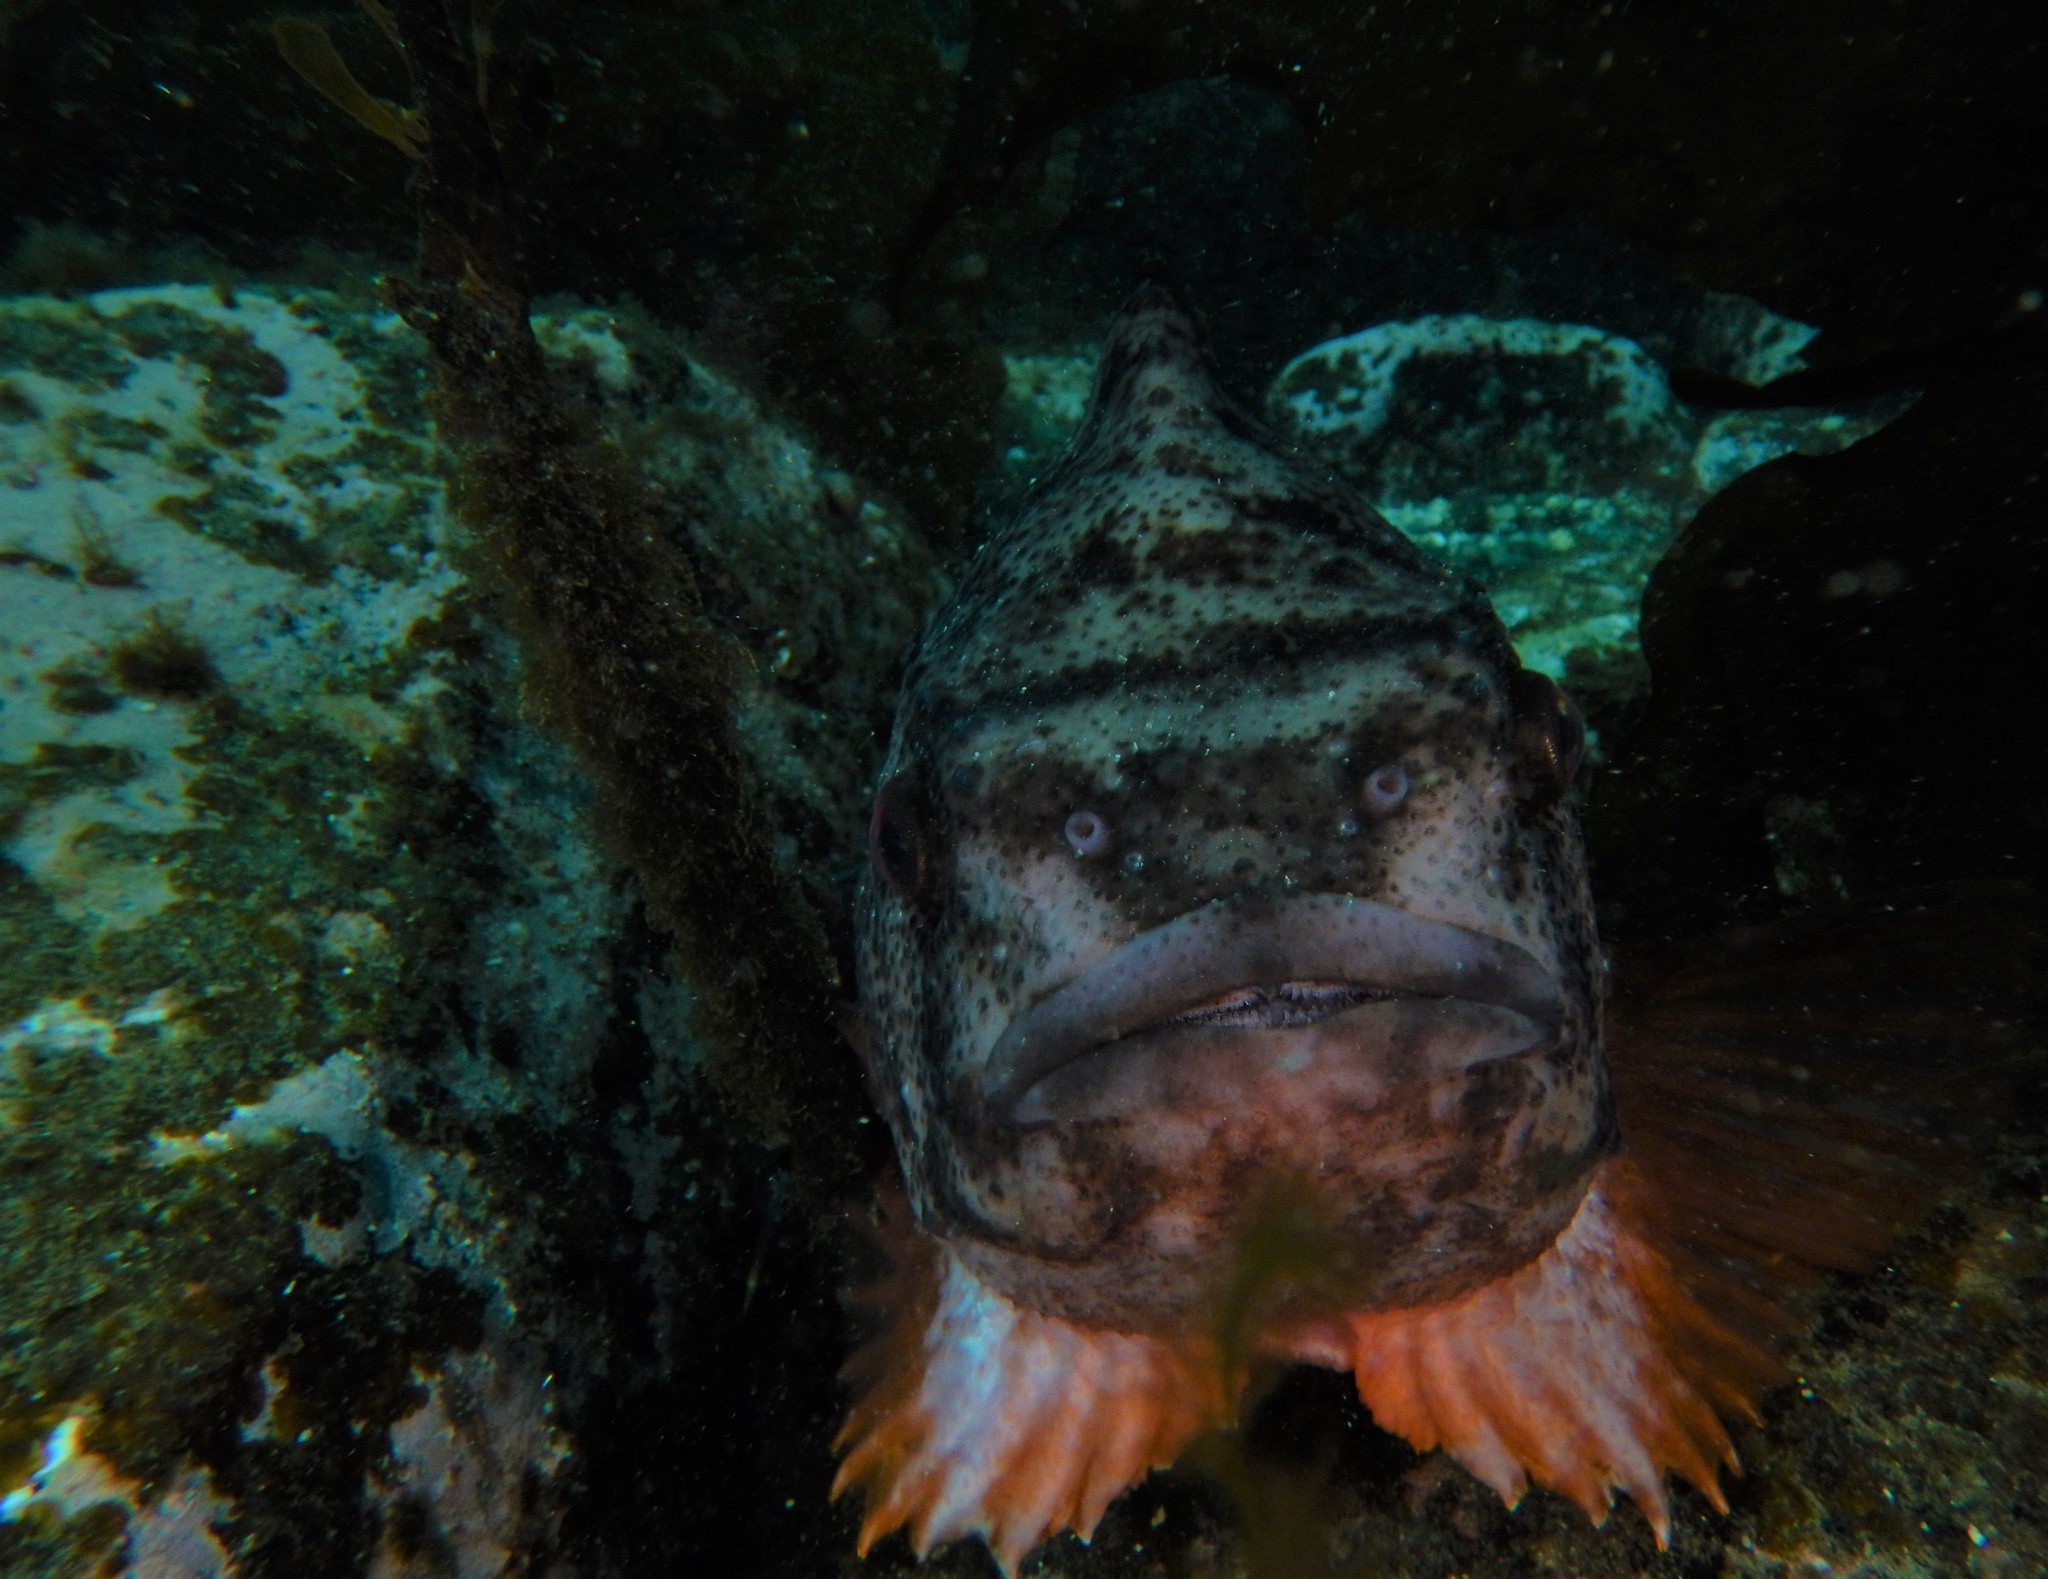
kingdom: Animalia
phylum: Chordata
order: Scorpaeniformes
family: Cyclopteridae
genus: Cyclopterus
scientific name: Cyclopterus lumpus
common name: Lumpsucker
